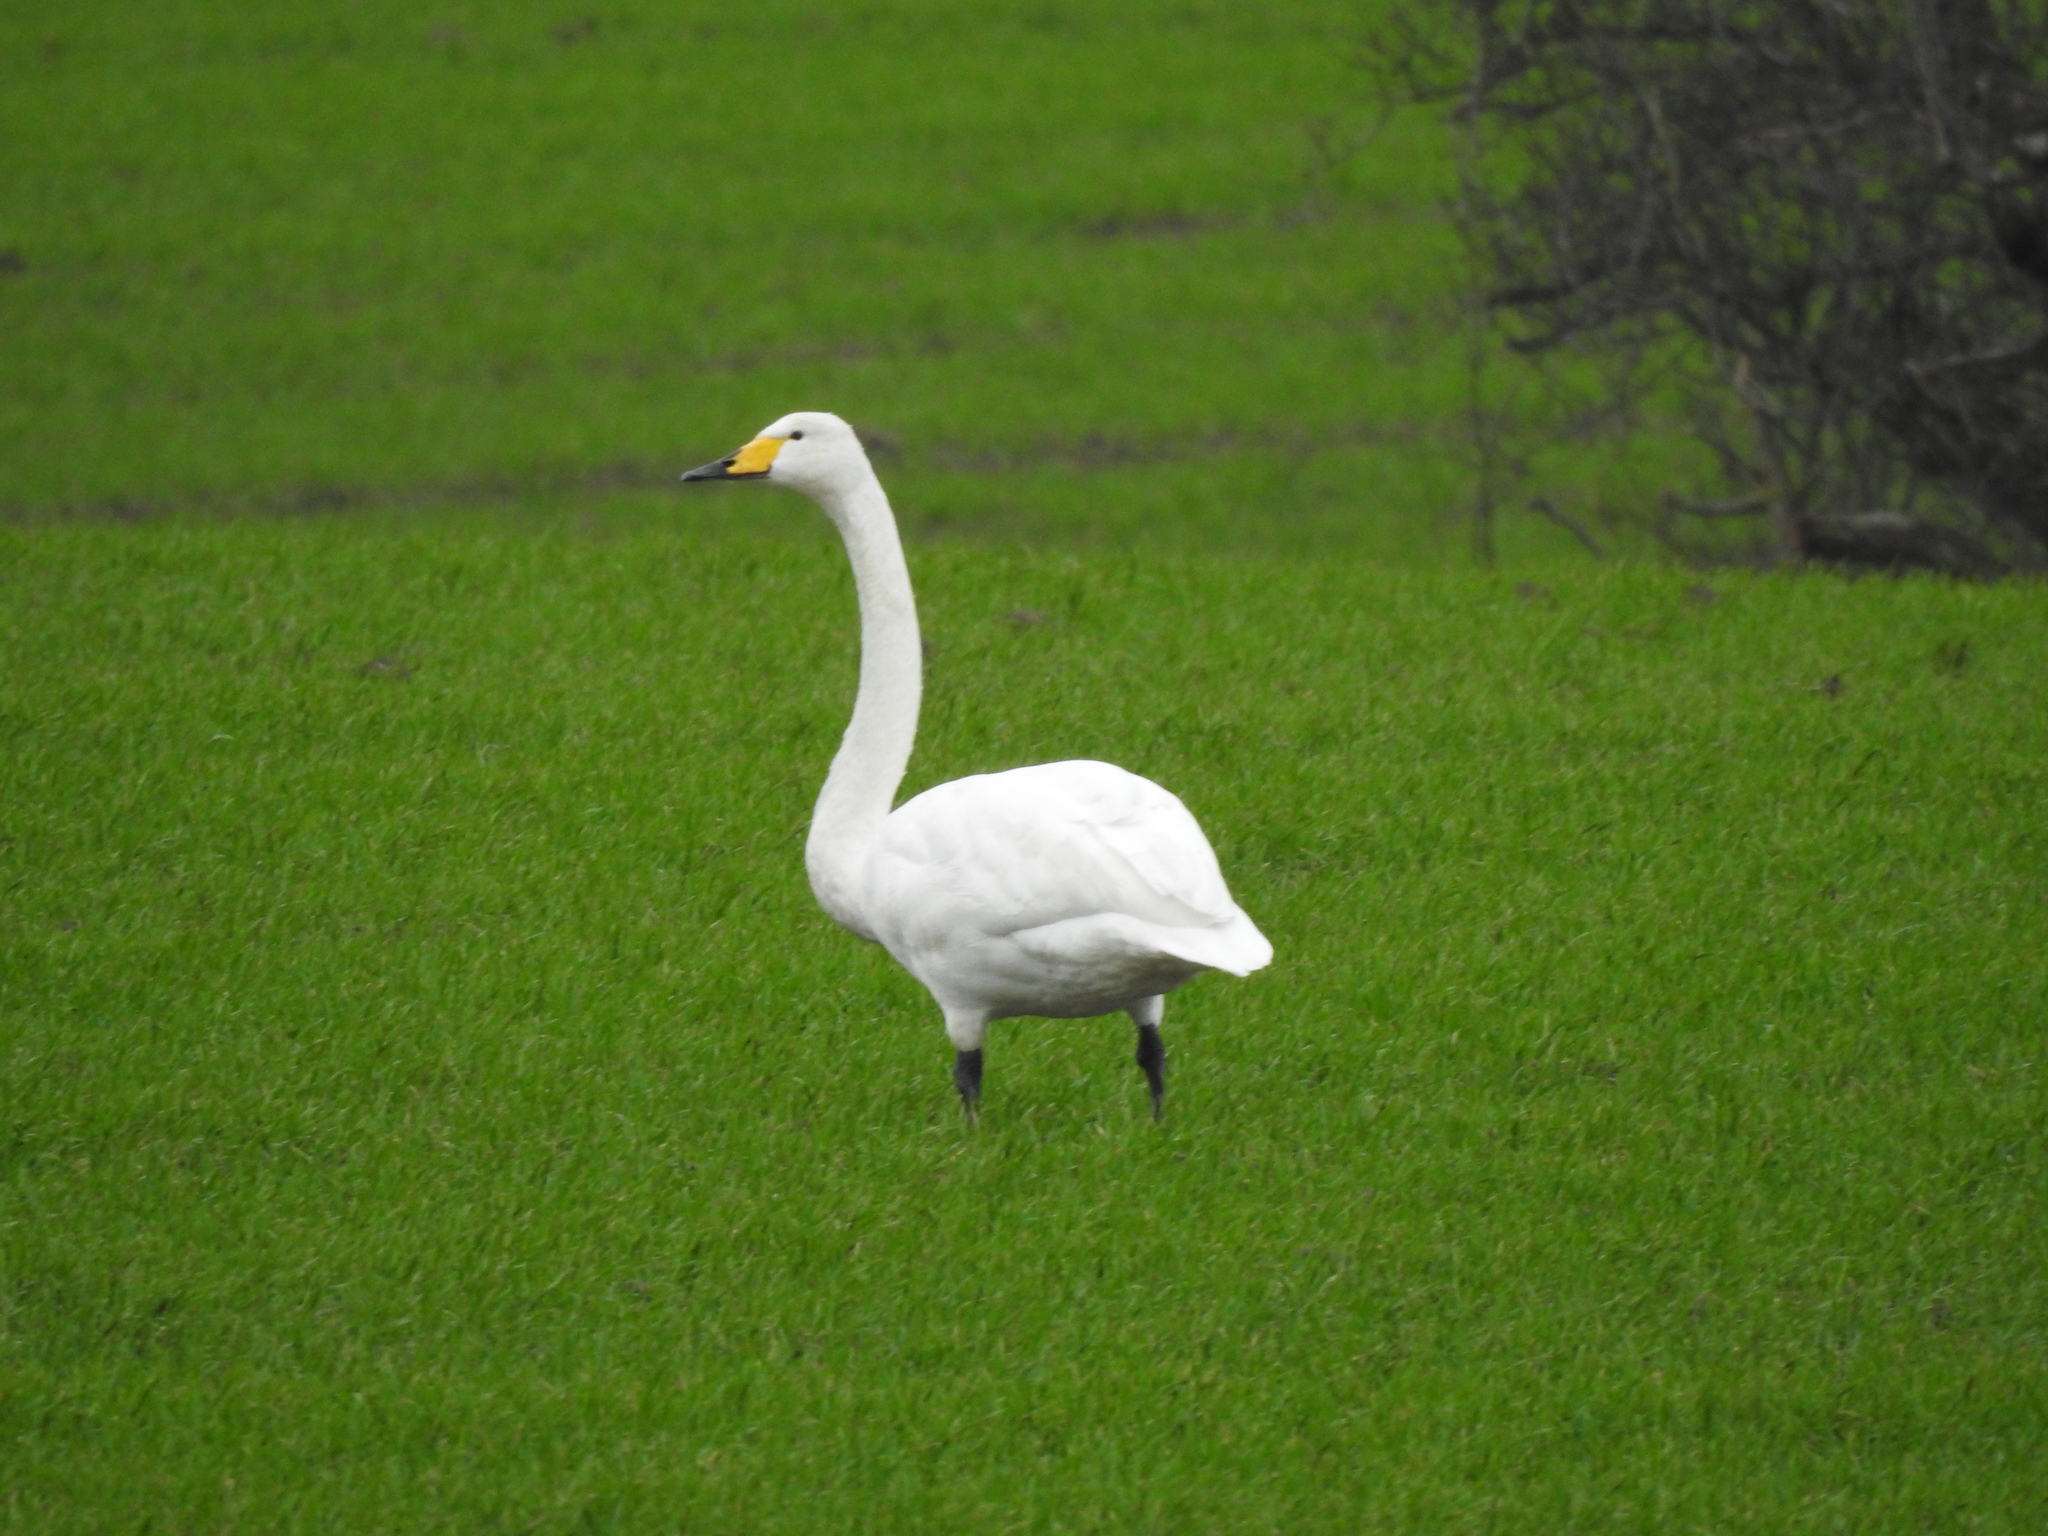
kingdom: Animalia
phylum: Chordata
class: Aves
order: Anseriformes
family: Anatidae
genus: Cygnus
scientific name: Cygnus cygnus
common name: Whooper swan
